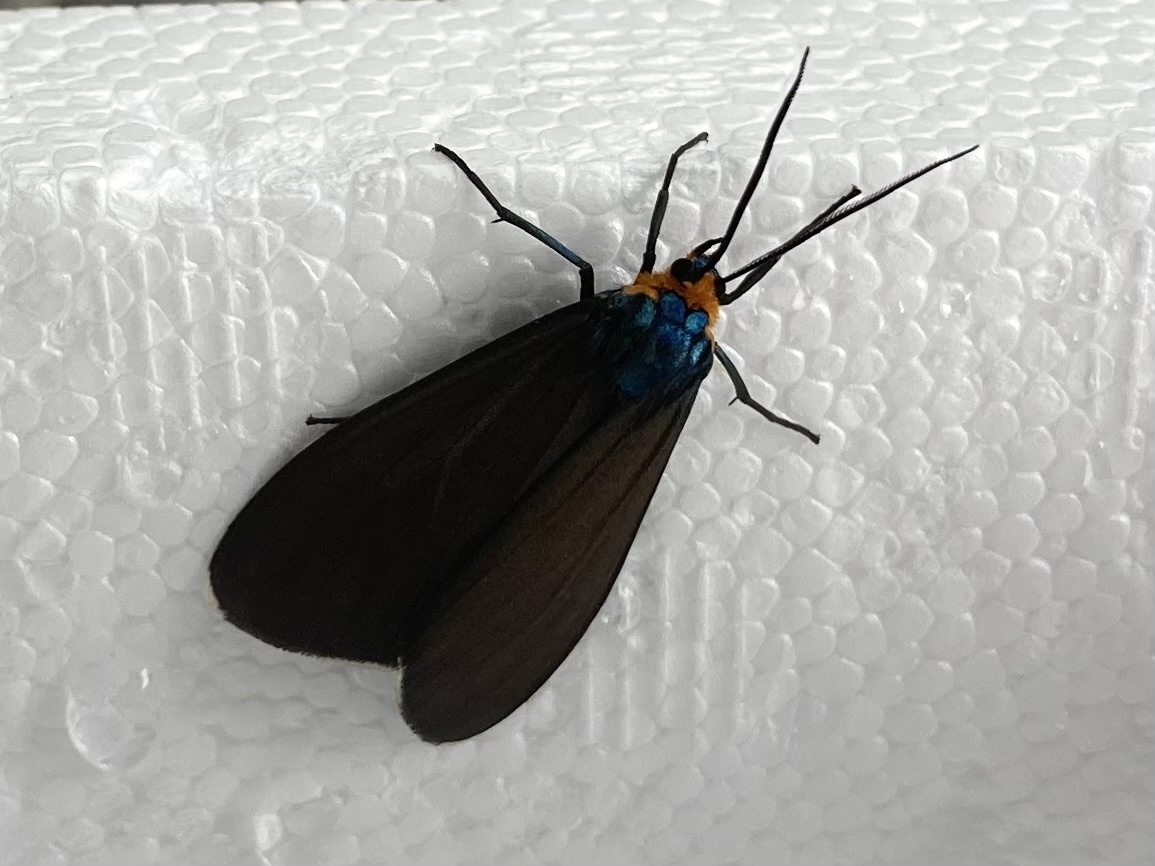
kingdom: Animalia
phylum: Arthropoda
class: Insecta
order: Lepidoptera
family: Erebidae
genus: Ctenucha
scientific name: Ctenucha virginica
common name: Virginia ctenucha moth
